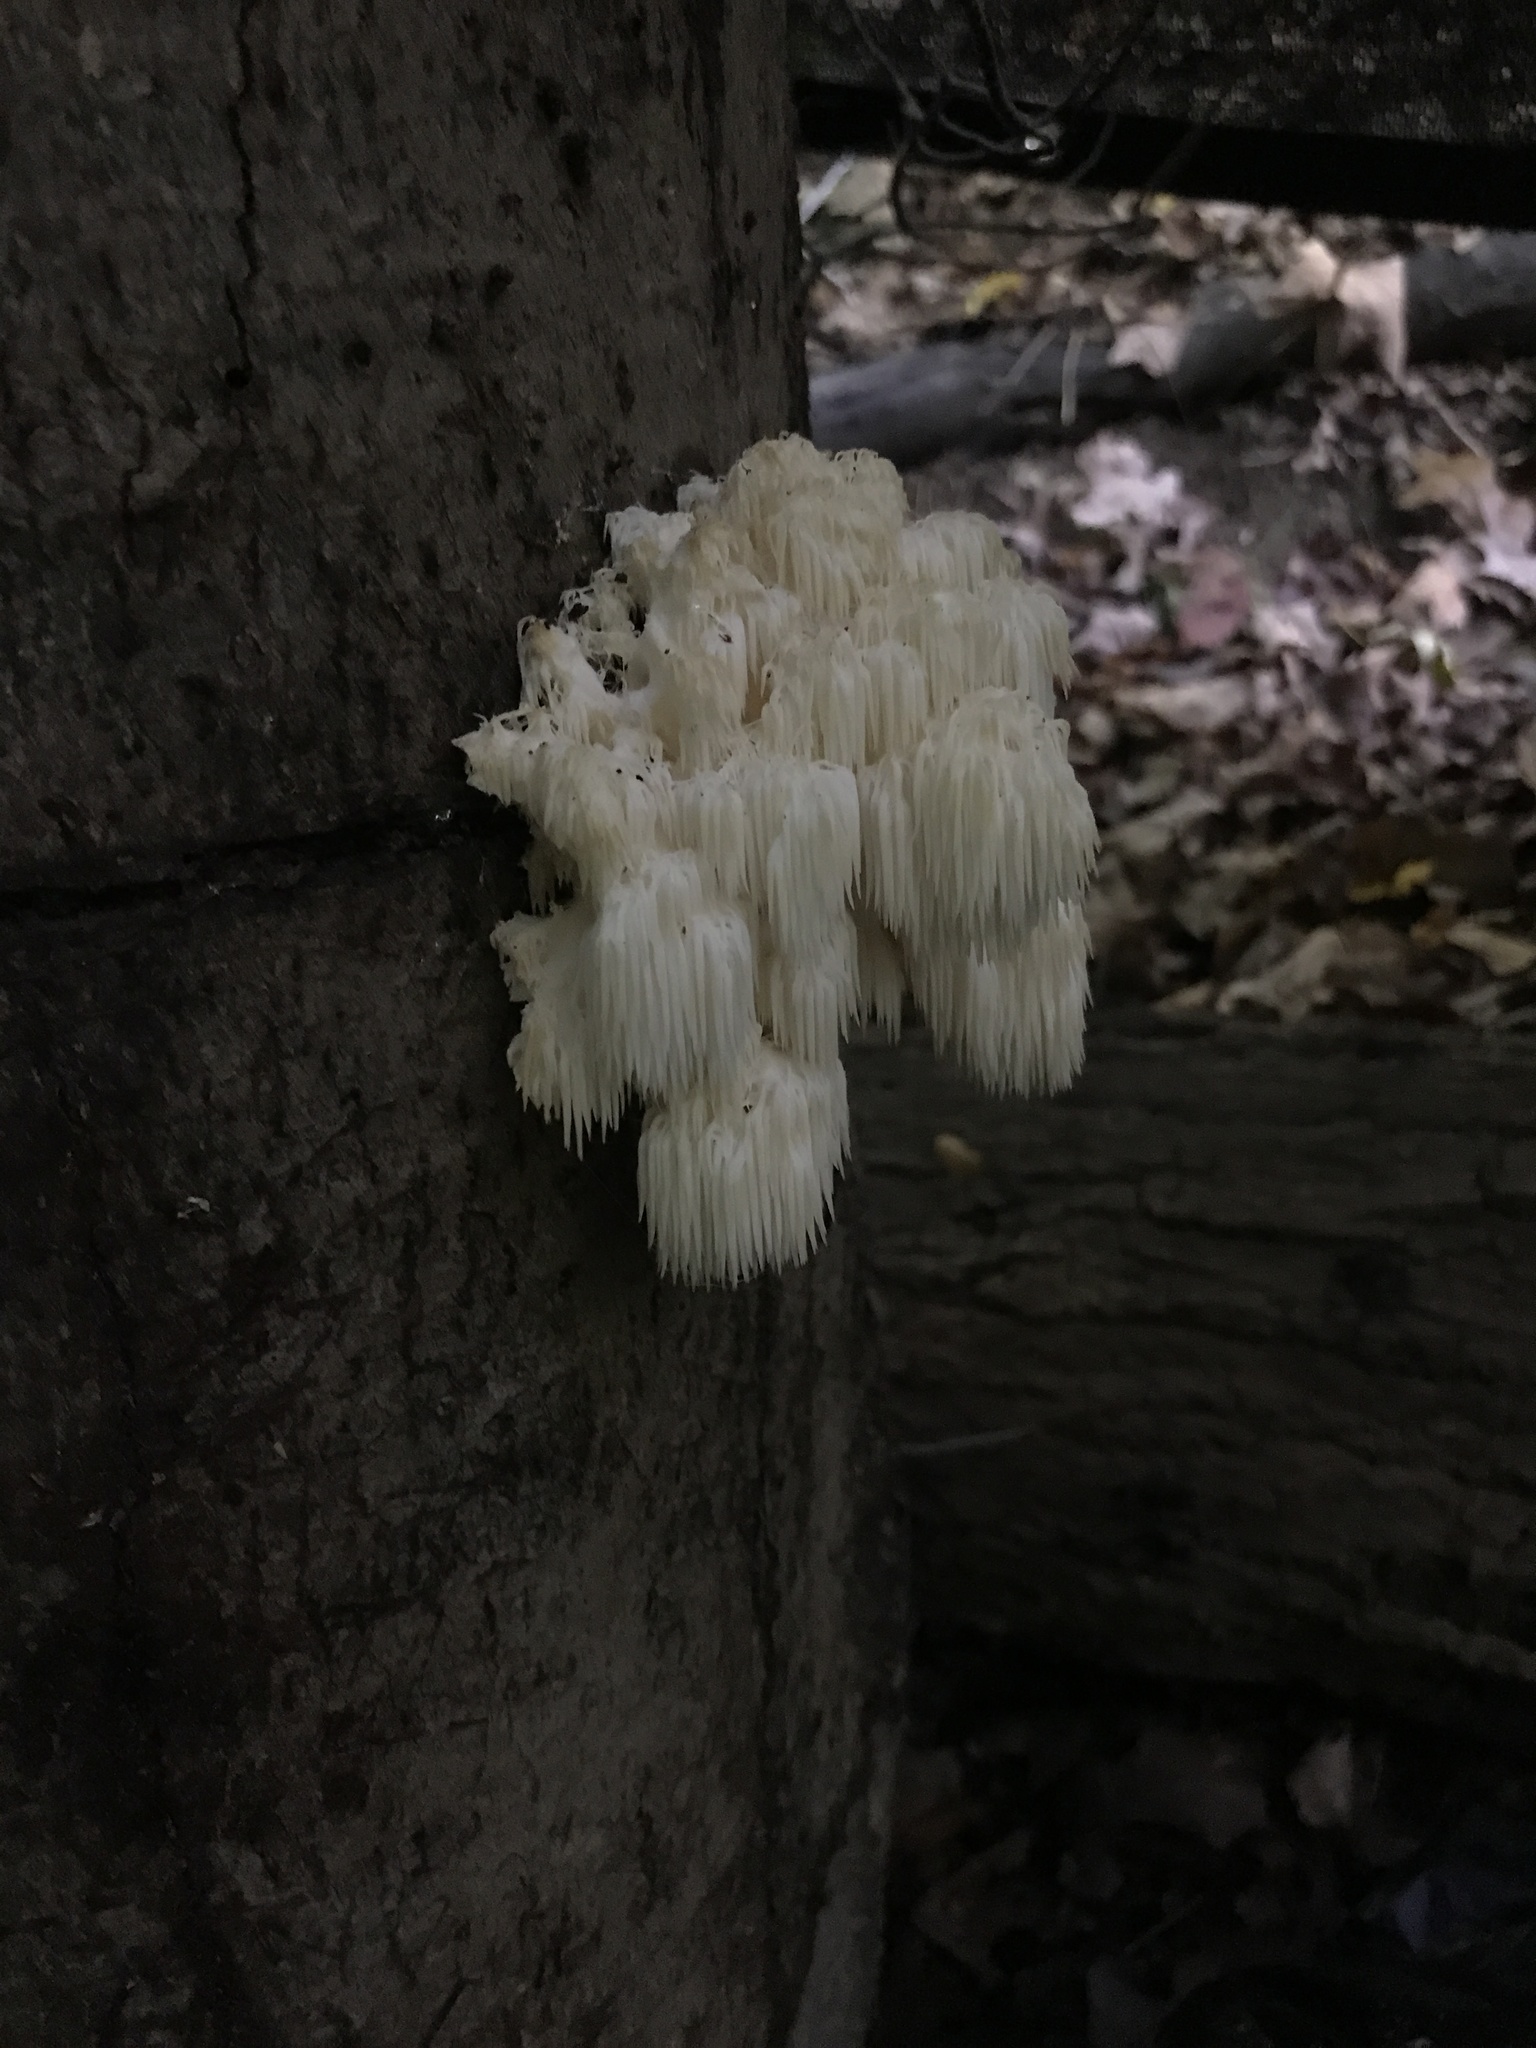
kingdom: Fungi
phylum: Basidiomycota
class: Agaricomycetes
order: Russulales
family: Hericiaceae
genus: Hericium
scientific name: Hericium americanum
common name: Bear's head tooth
